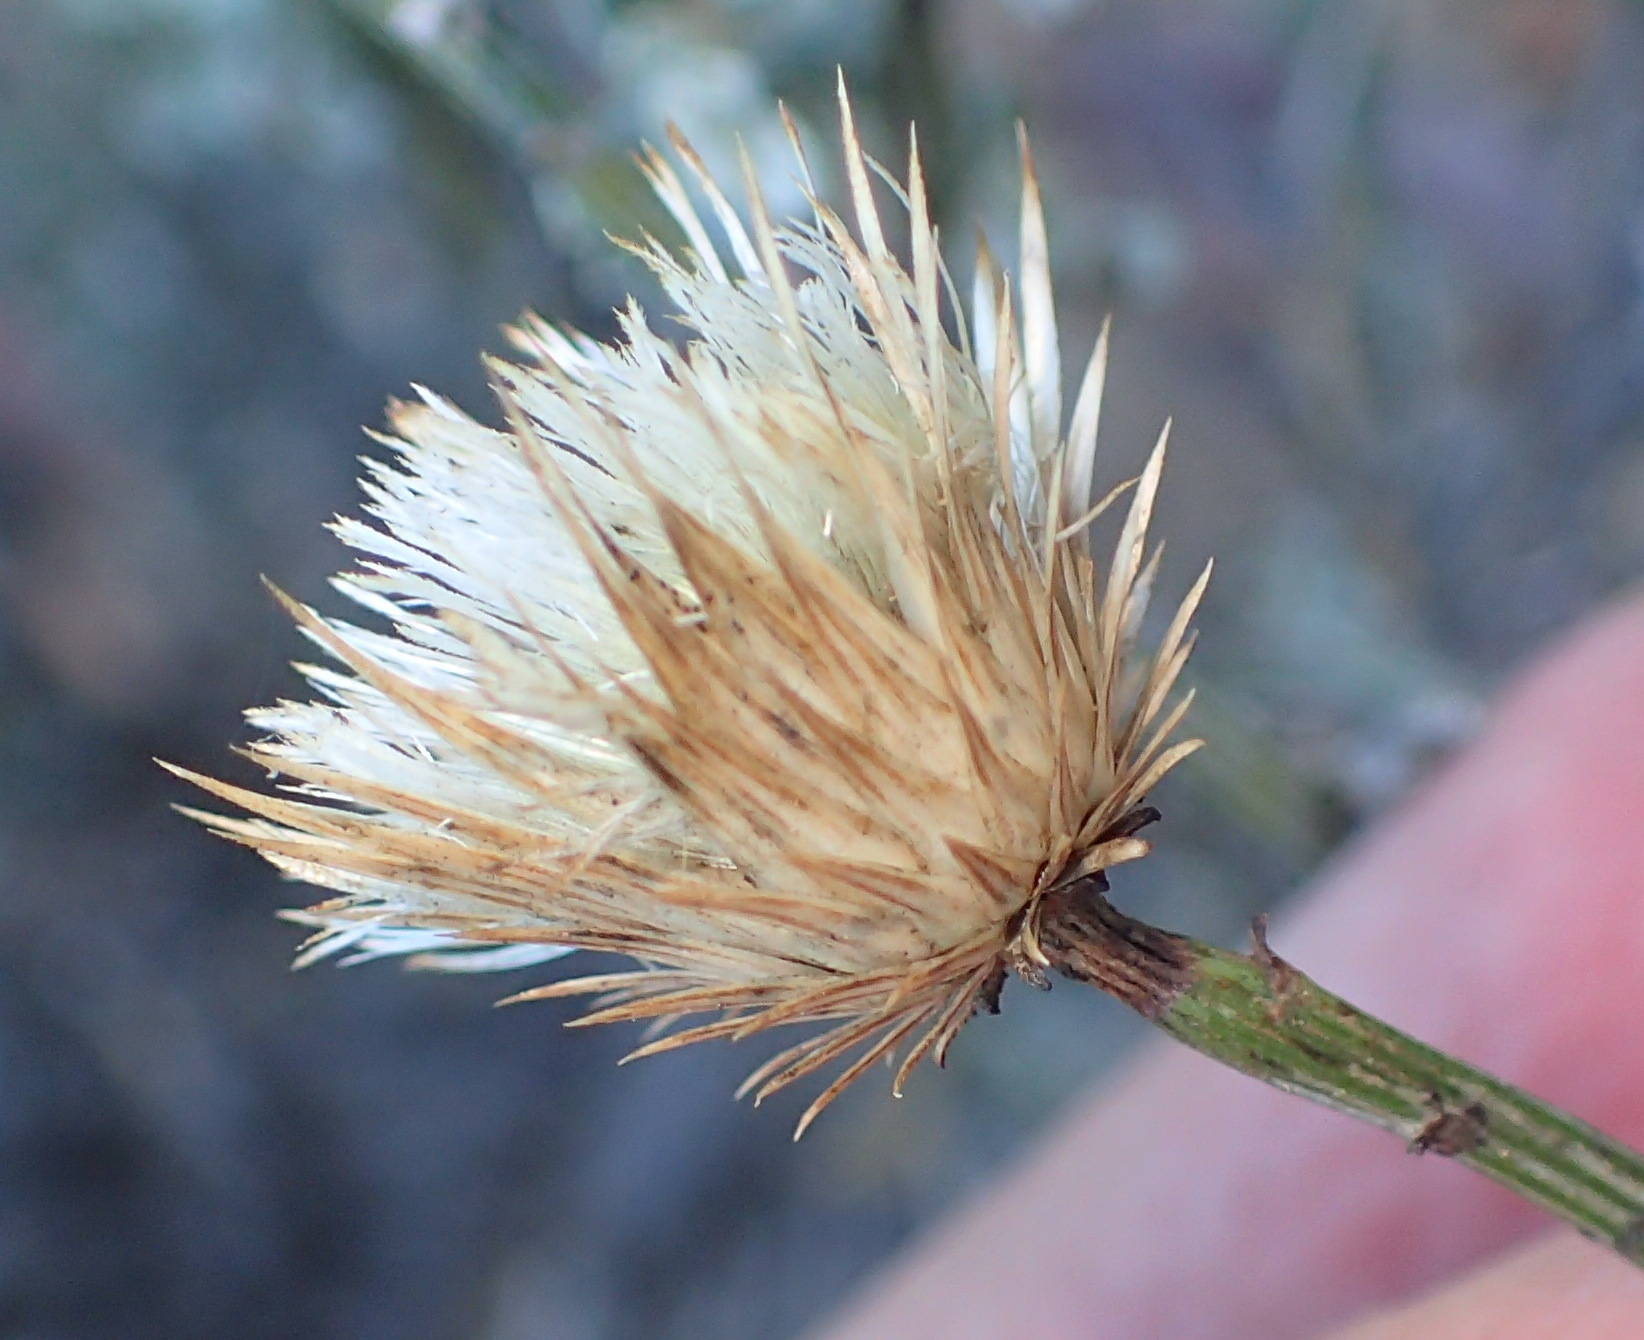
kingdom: Plantae
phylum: Tracheophyta
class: Magnoliopsida
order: Asterales
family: Asteraceae
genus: Dicoma
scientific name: Dicoma picta
